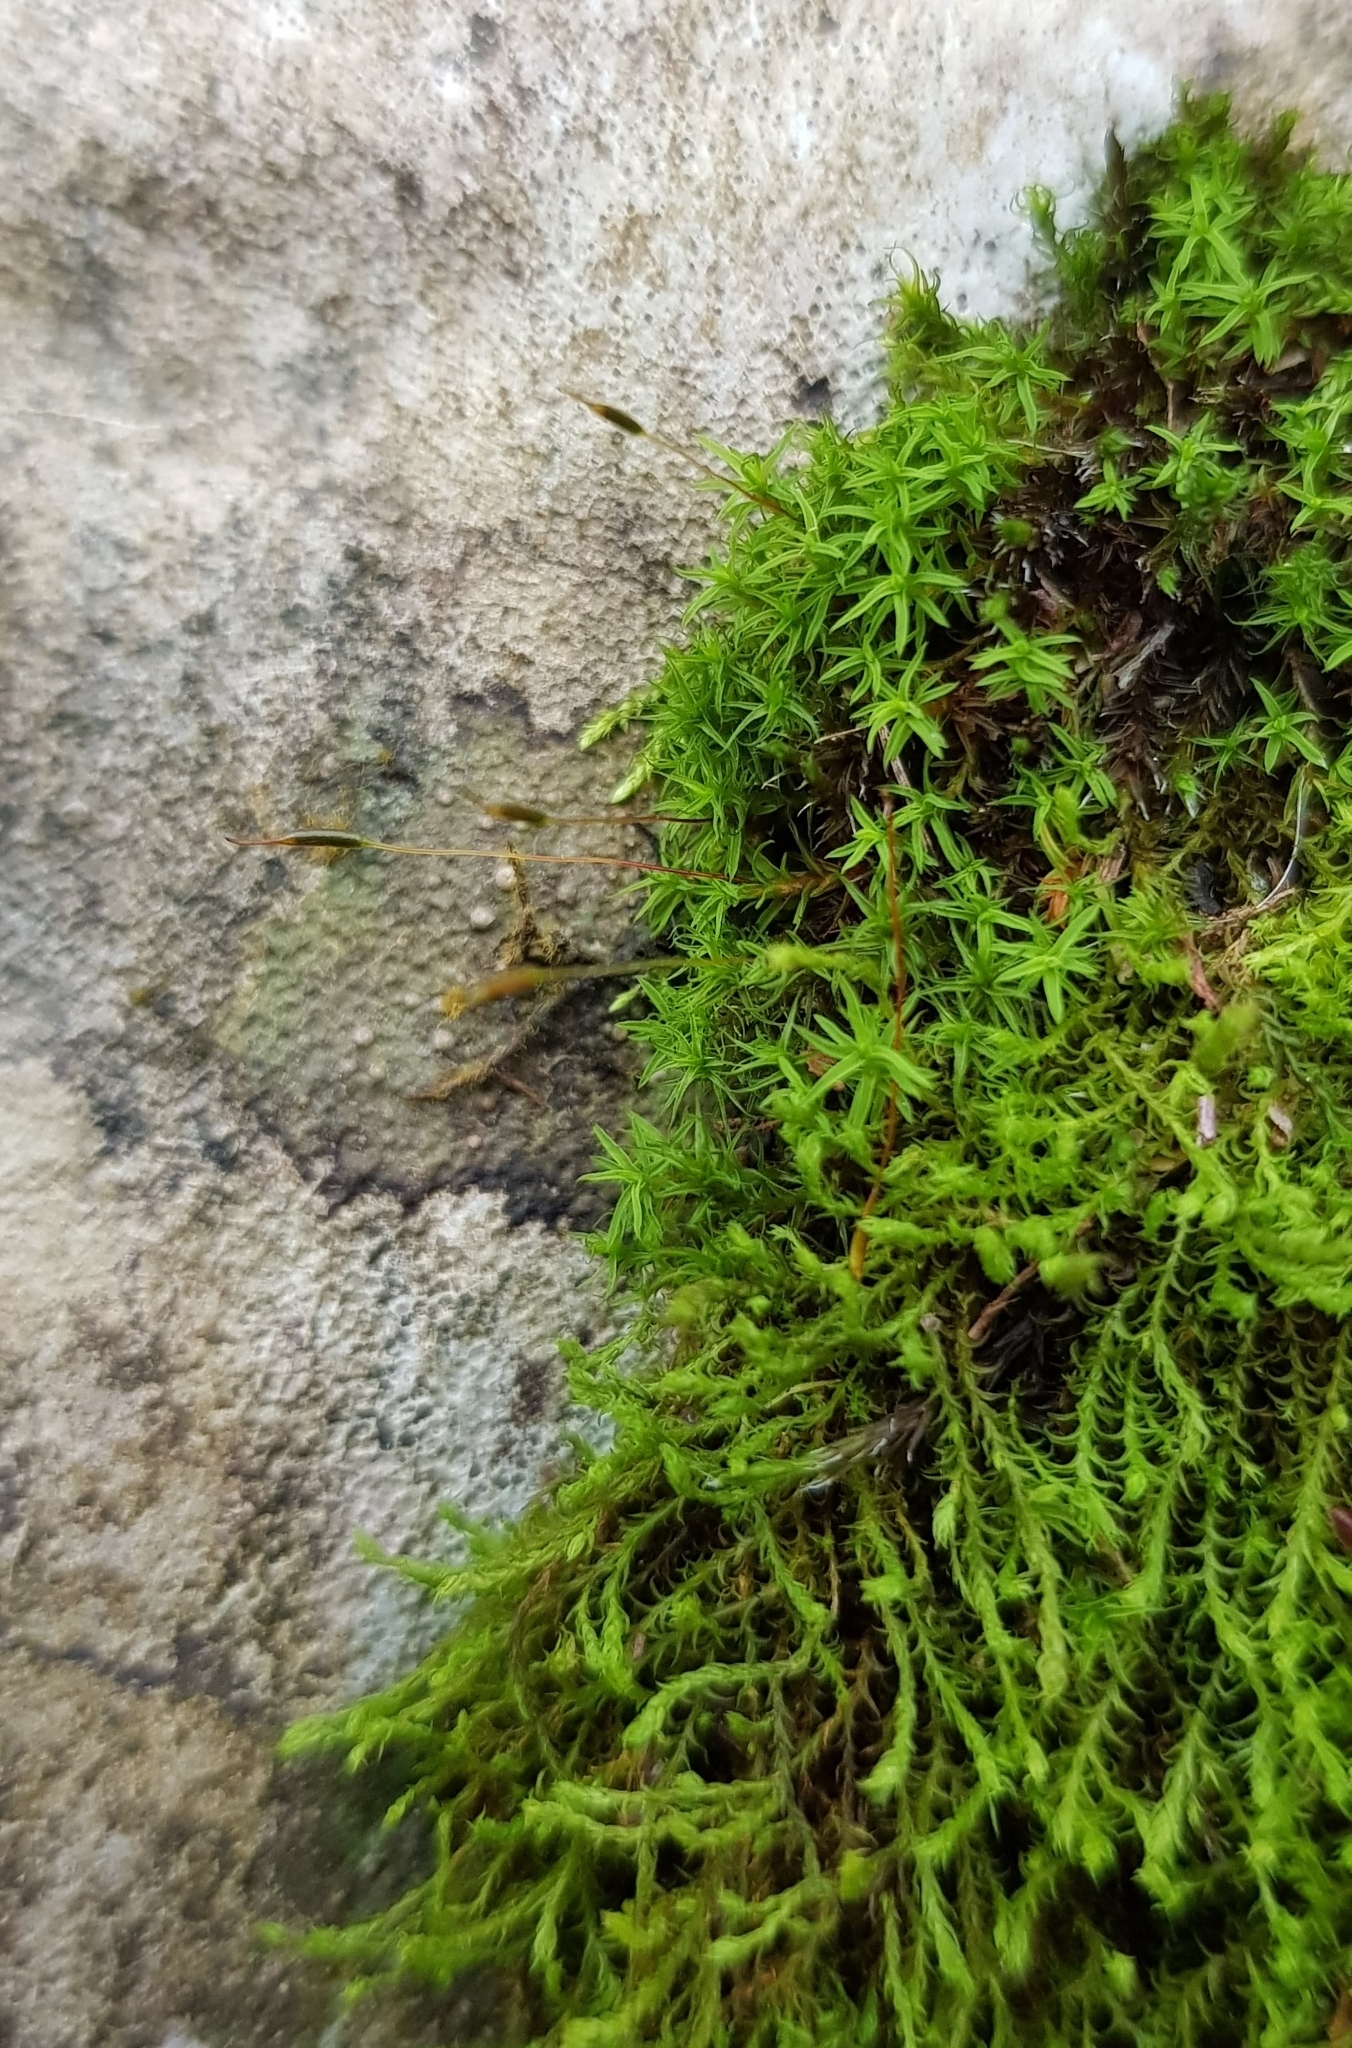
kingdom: Plantae
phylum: Bryophyta
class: Bryopsida
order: Pottiales
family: Pottiaceae
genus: Bryoerythrophyllum
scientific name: Bryoerythrophyllum recurvirostrum
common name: Red beard moss
